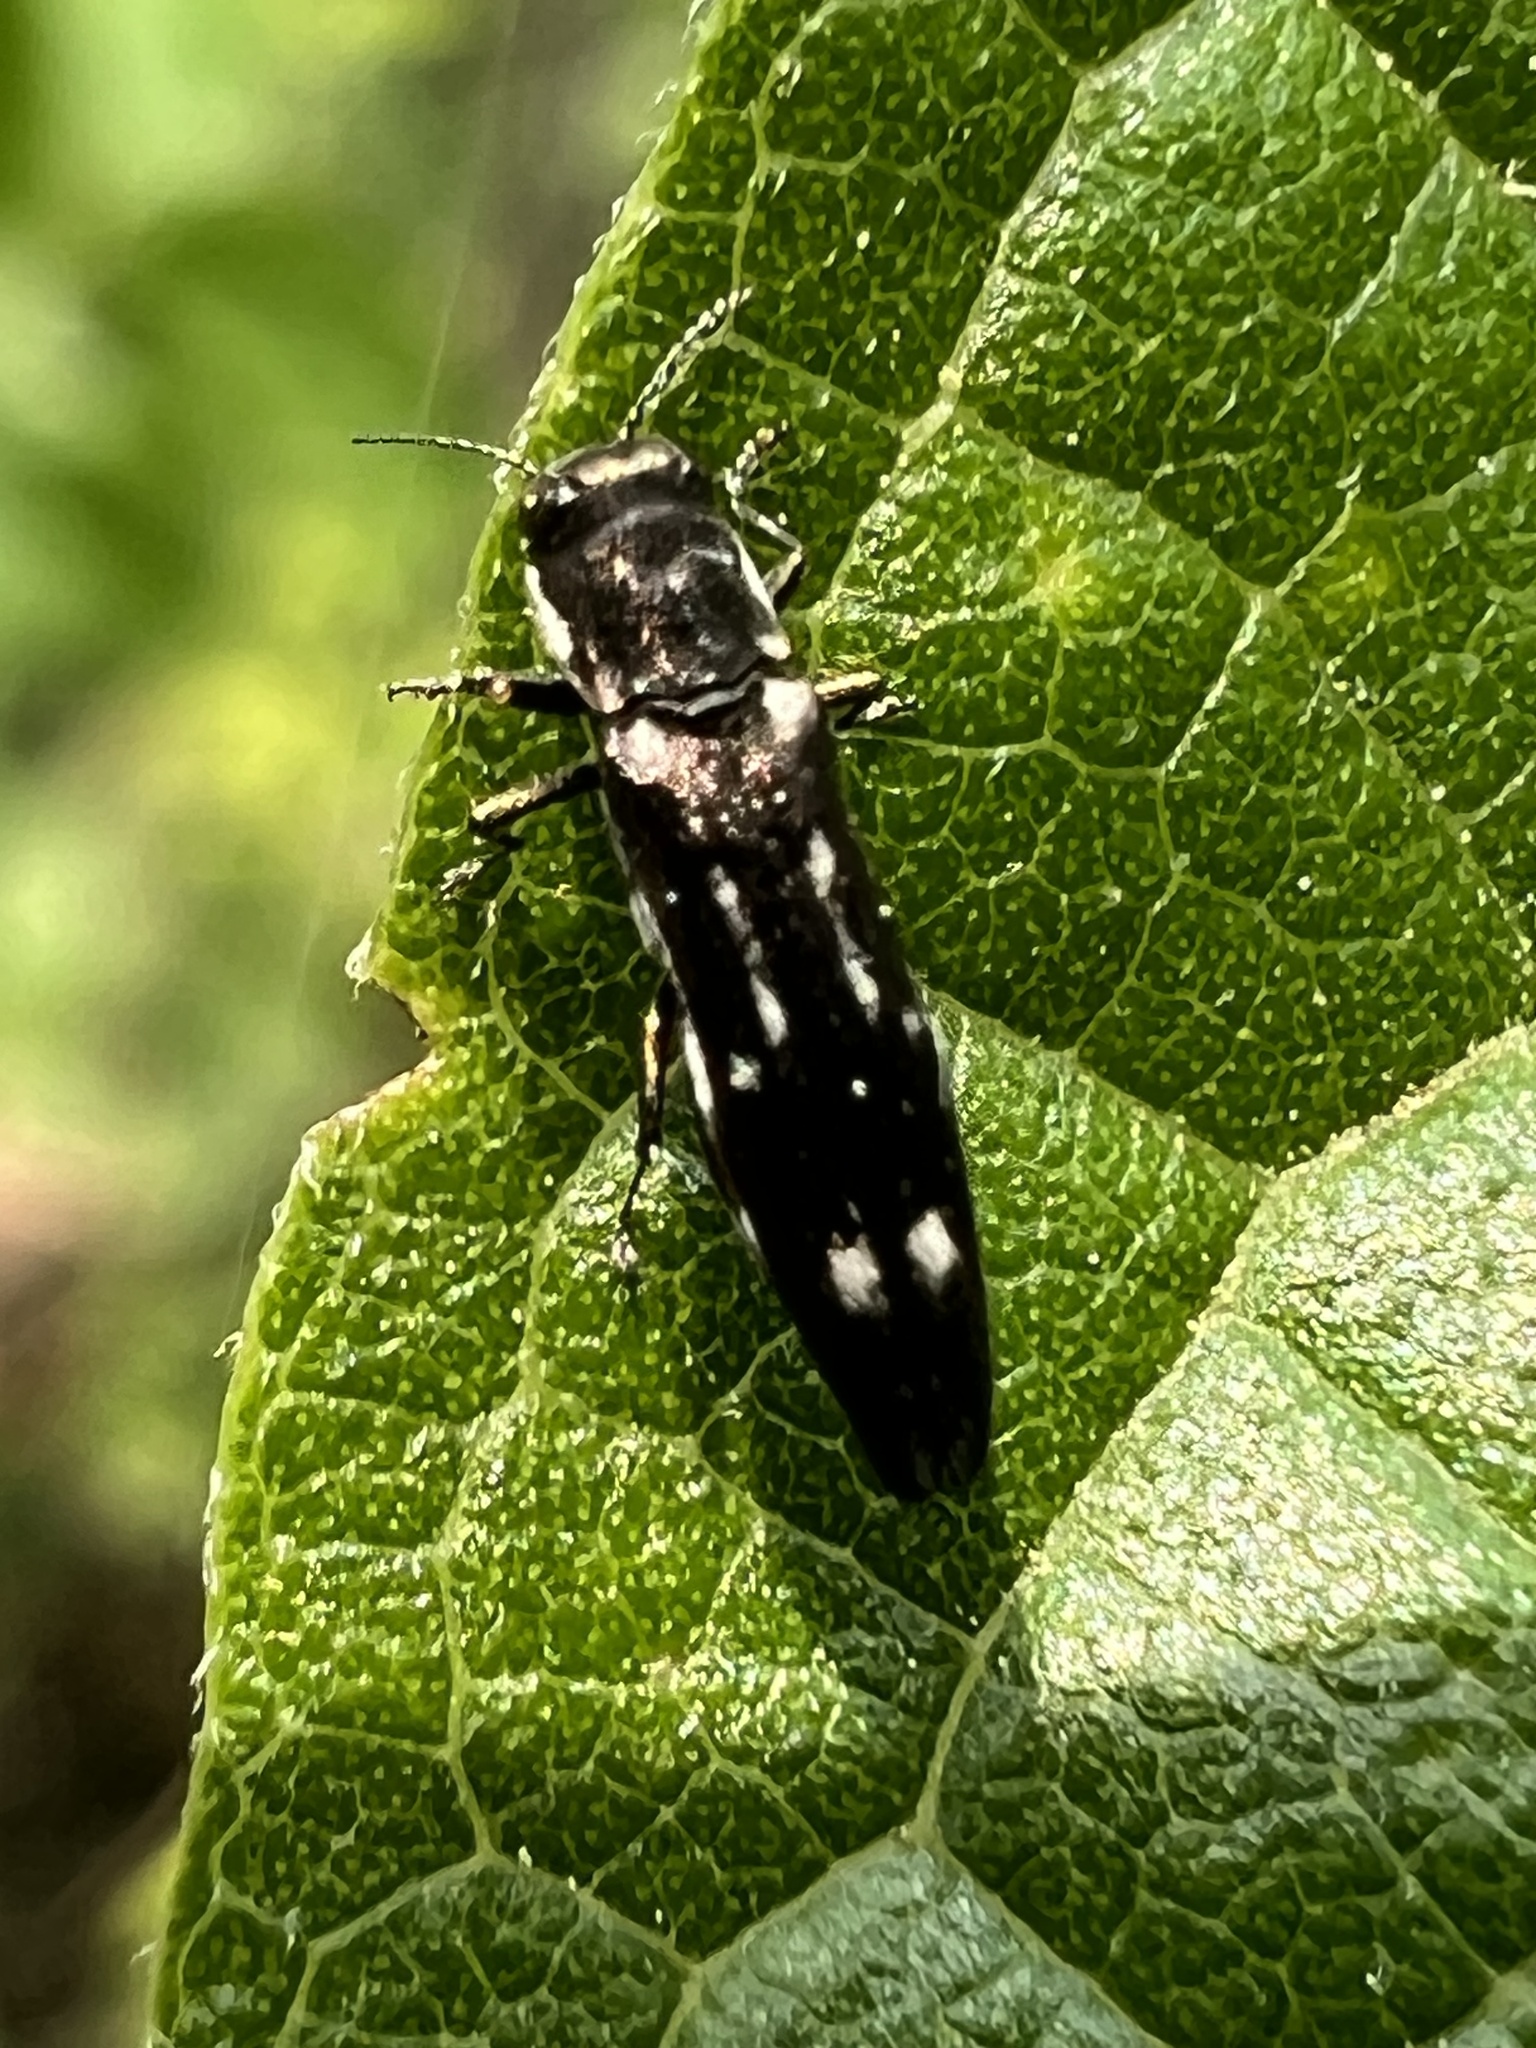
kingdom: Animalia
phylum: Arthropoda
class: Insecta
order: Coleoptera
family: Buprestidae
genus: Agrilus
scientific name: Agrilus obsoletoguttatus
